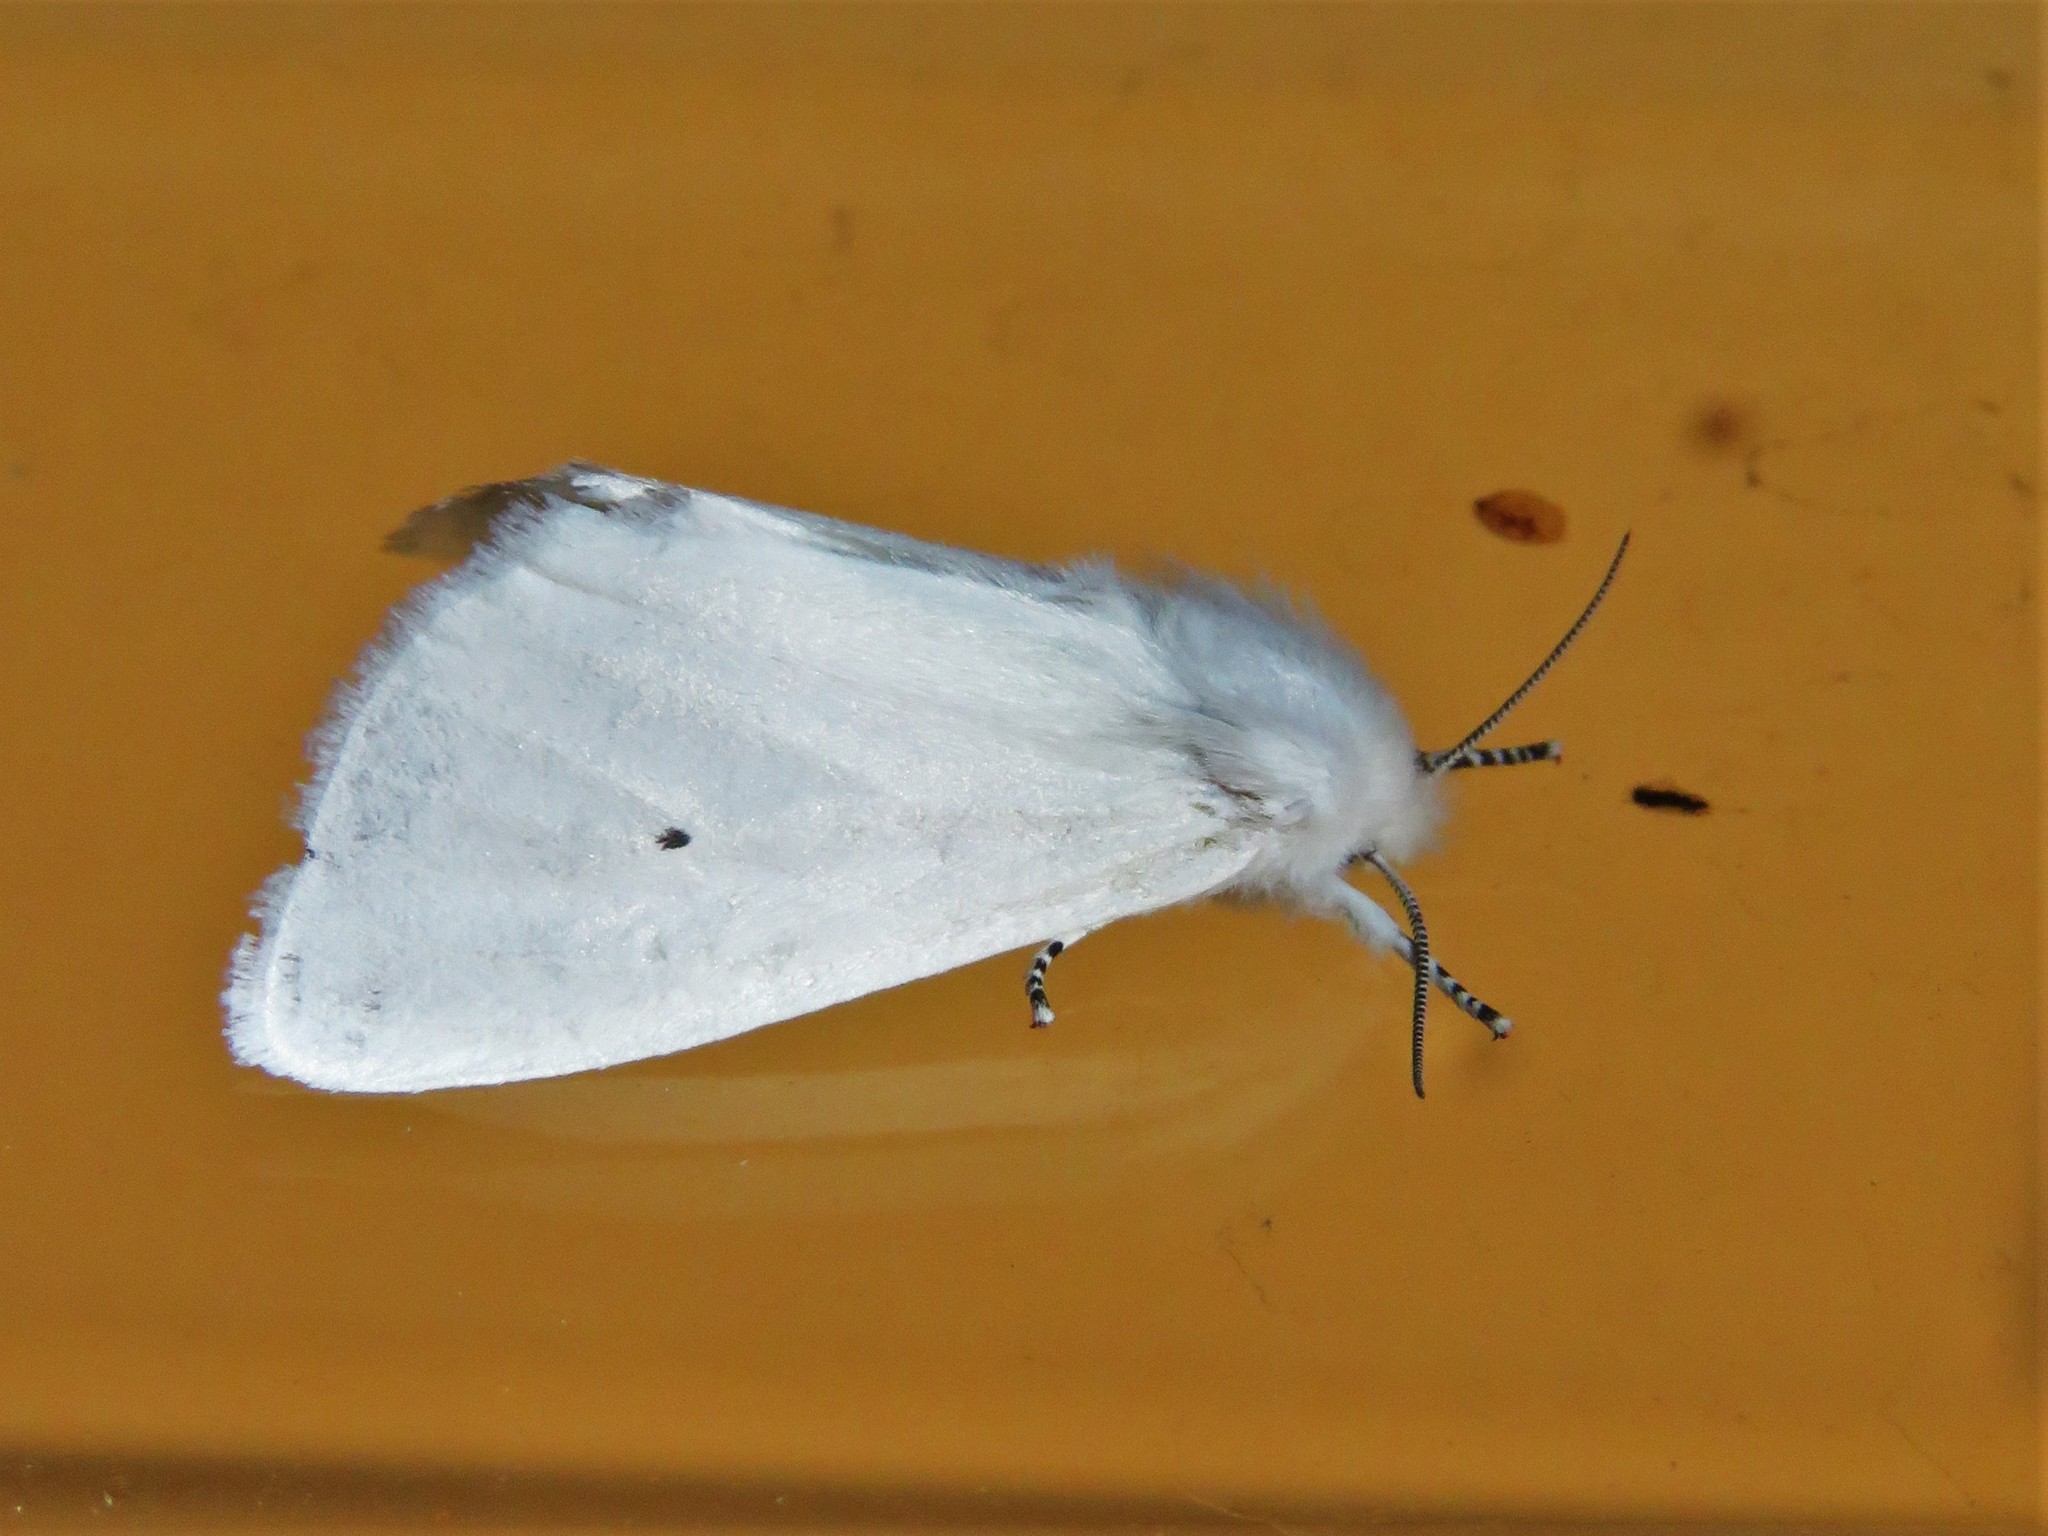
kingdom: Animalia
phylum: Arthropoda
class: Insecta
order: Lepidoptera
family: Erebidae
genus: Spilosoma
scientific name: Spilosoma virginica
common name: Virginia tiger moth
